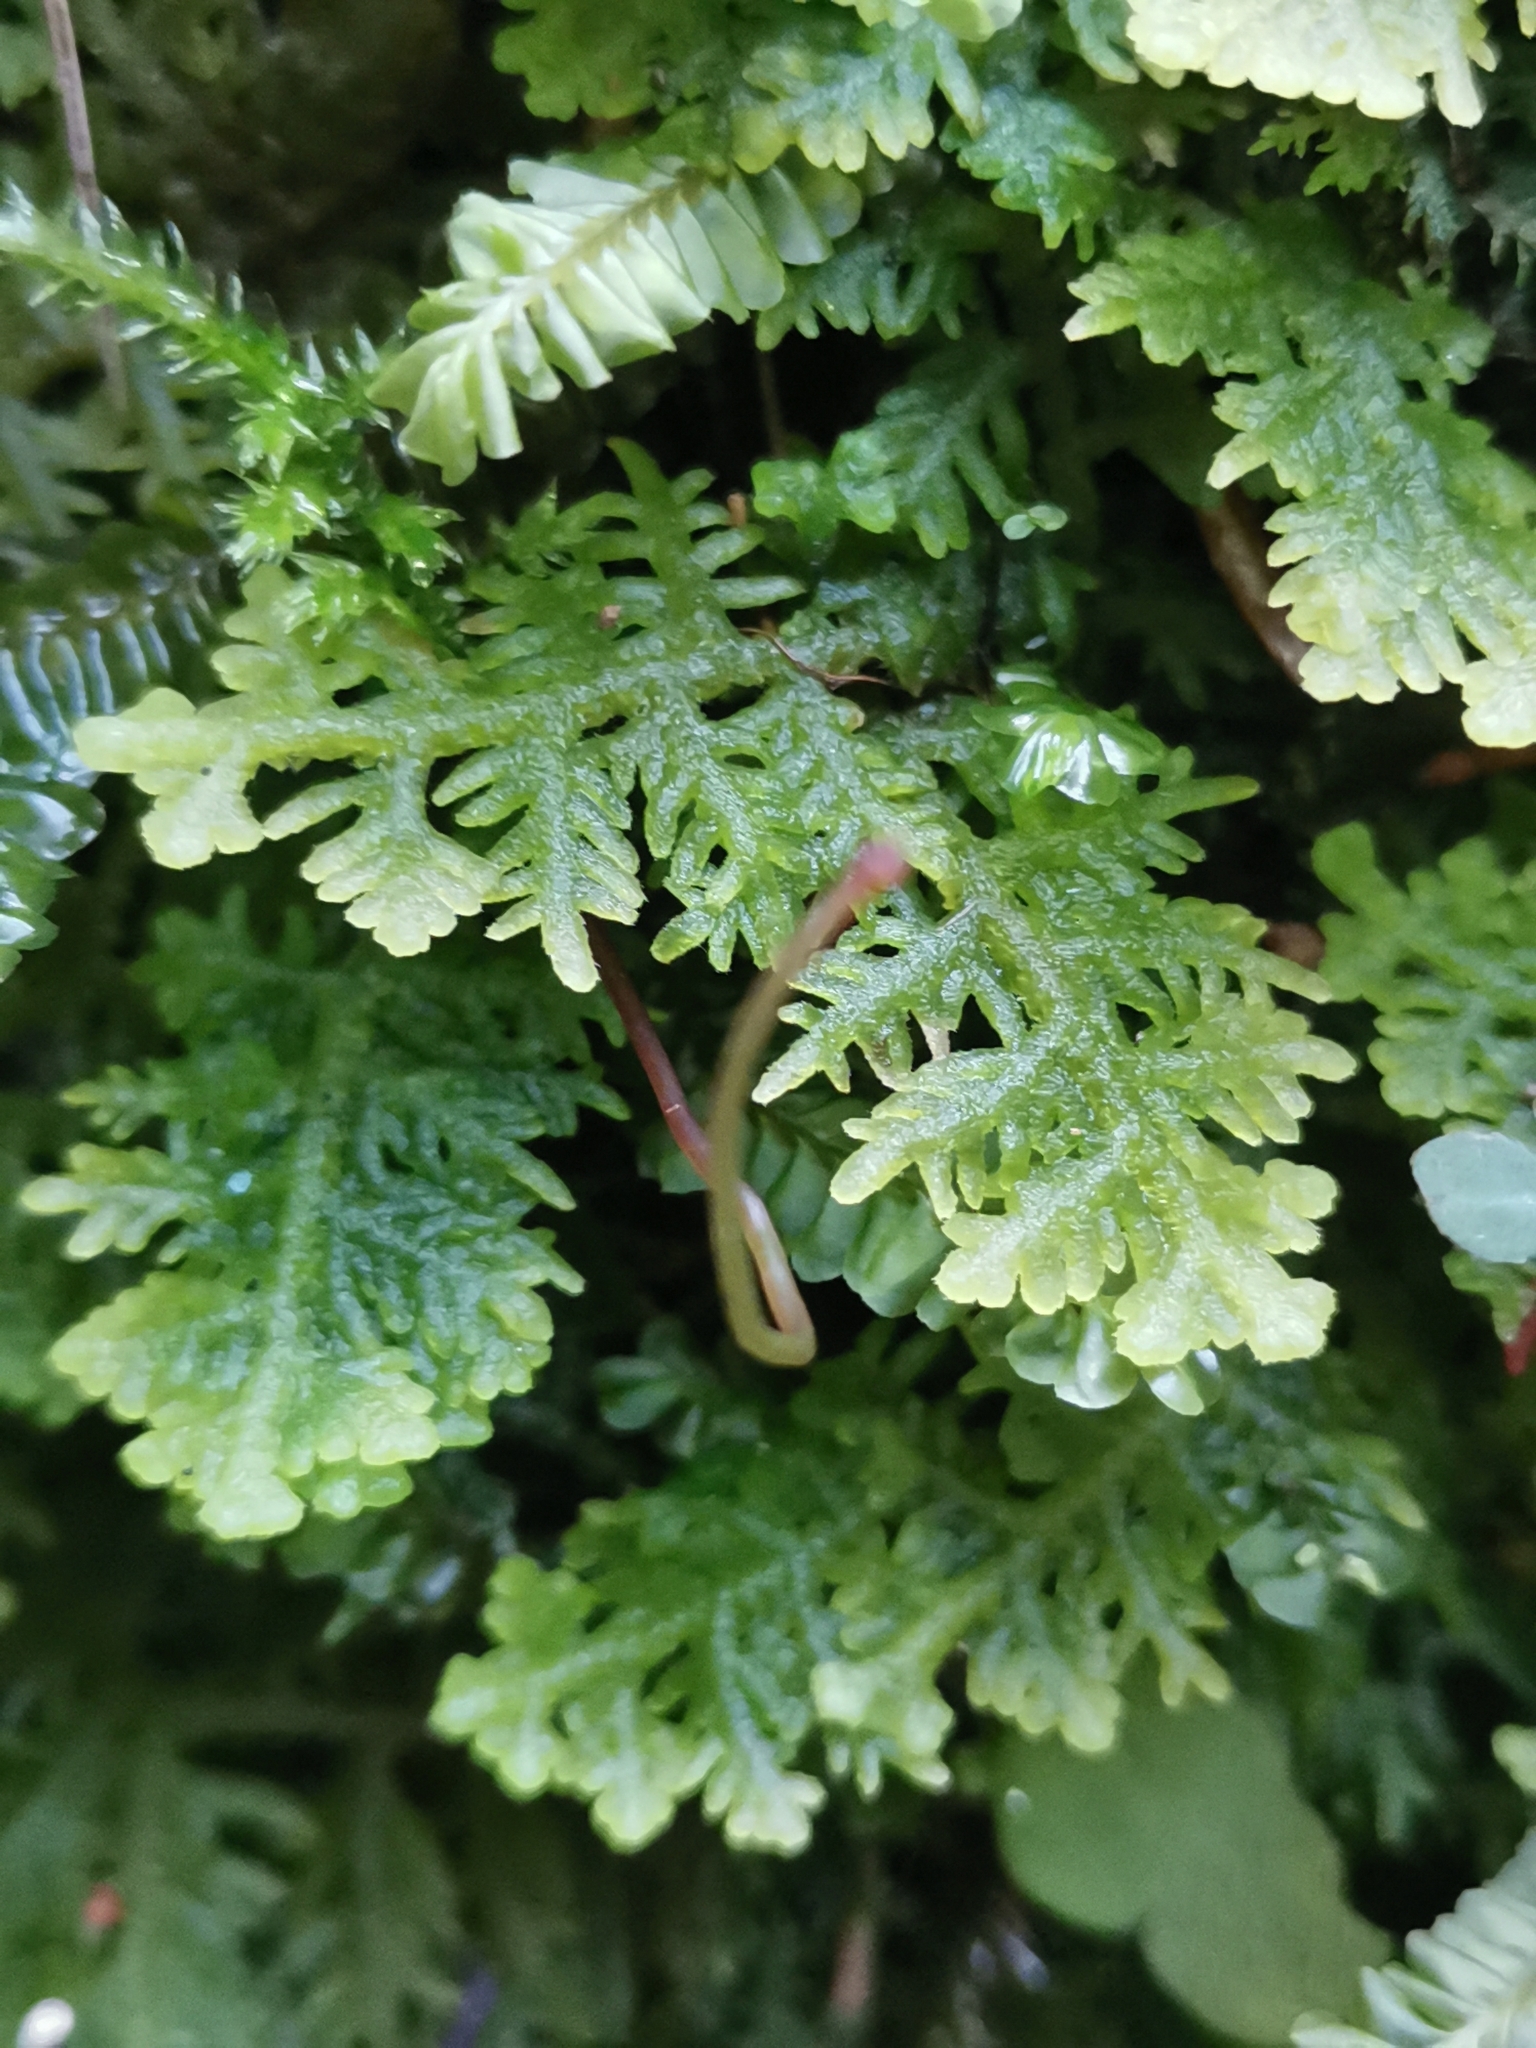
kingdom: Plantae
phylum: Marchantiophyta
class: Jungermanniopsida
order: Jungermanniales
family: Trichocoleaceae
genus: Trichocolea
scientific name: Trichocolea tomentella
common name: Woolly liverwort
